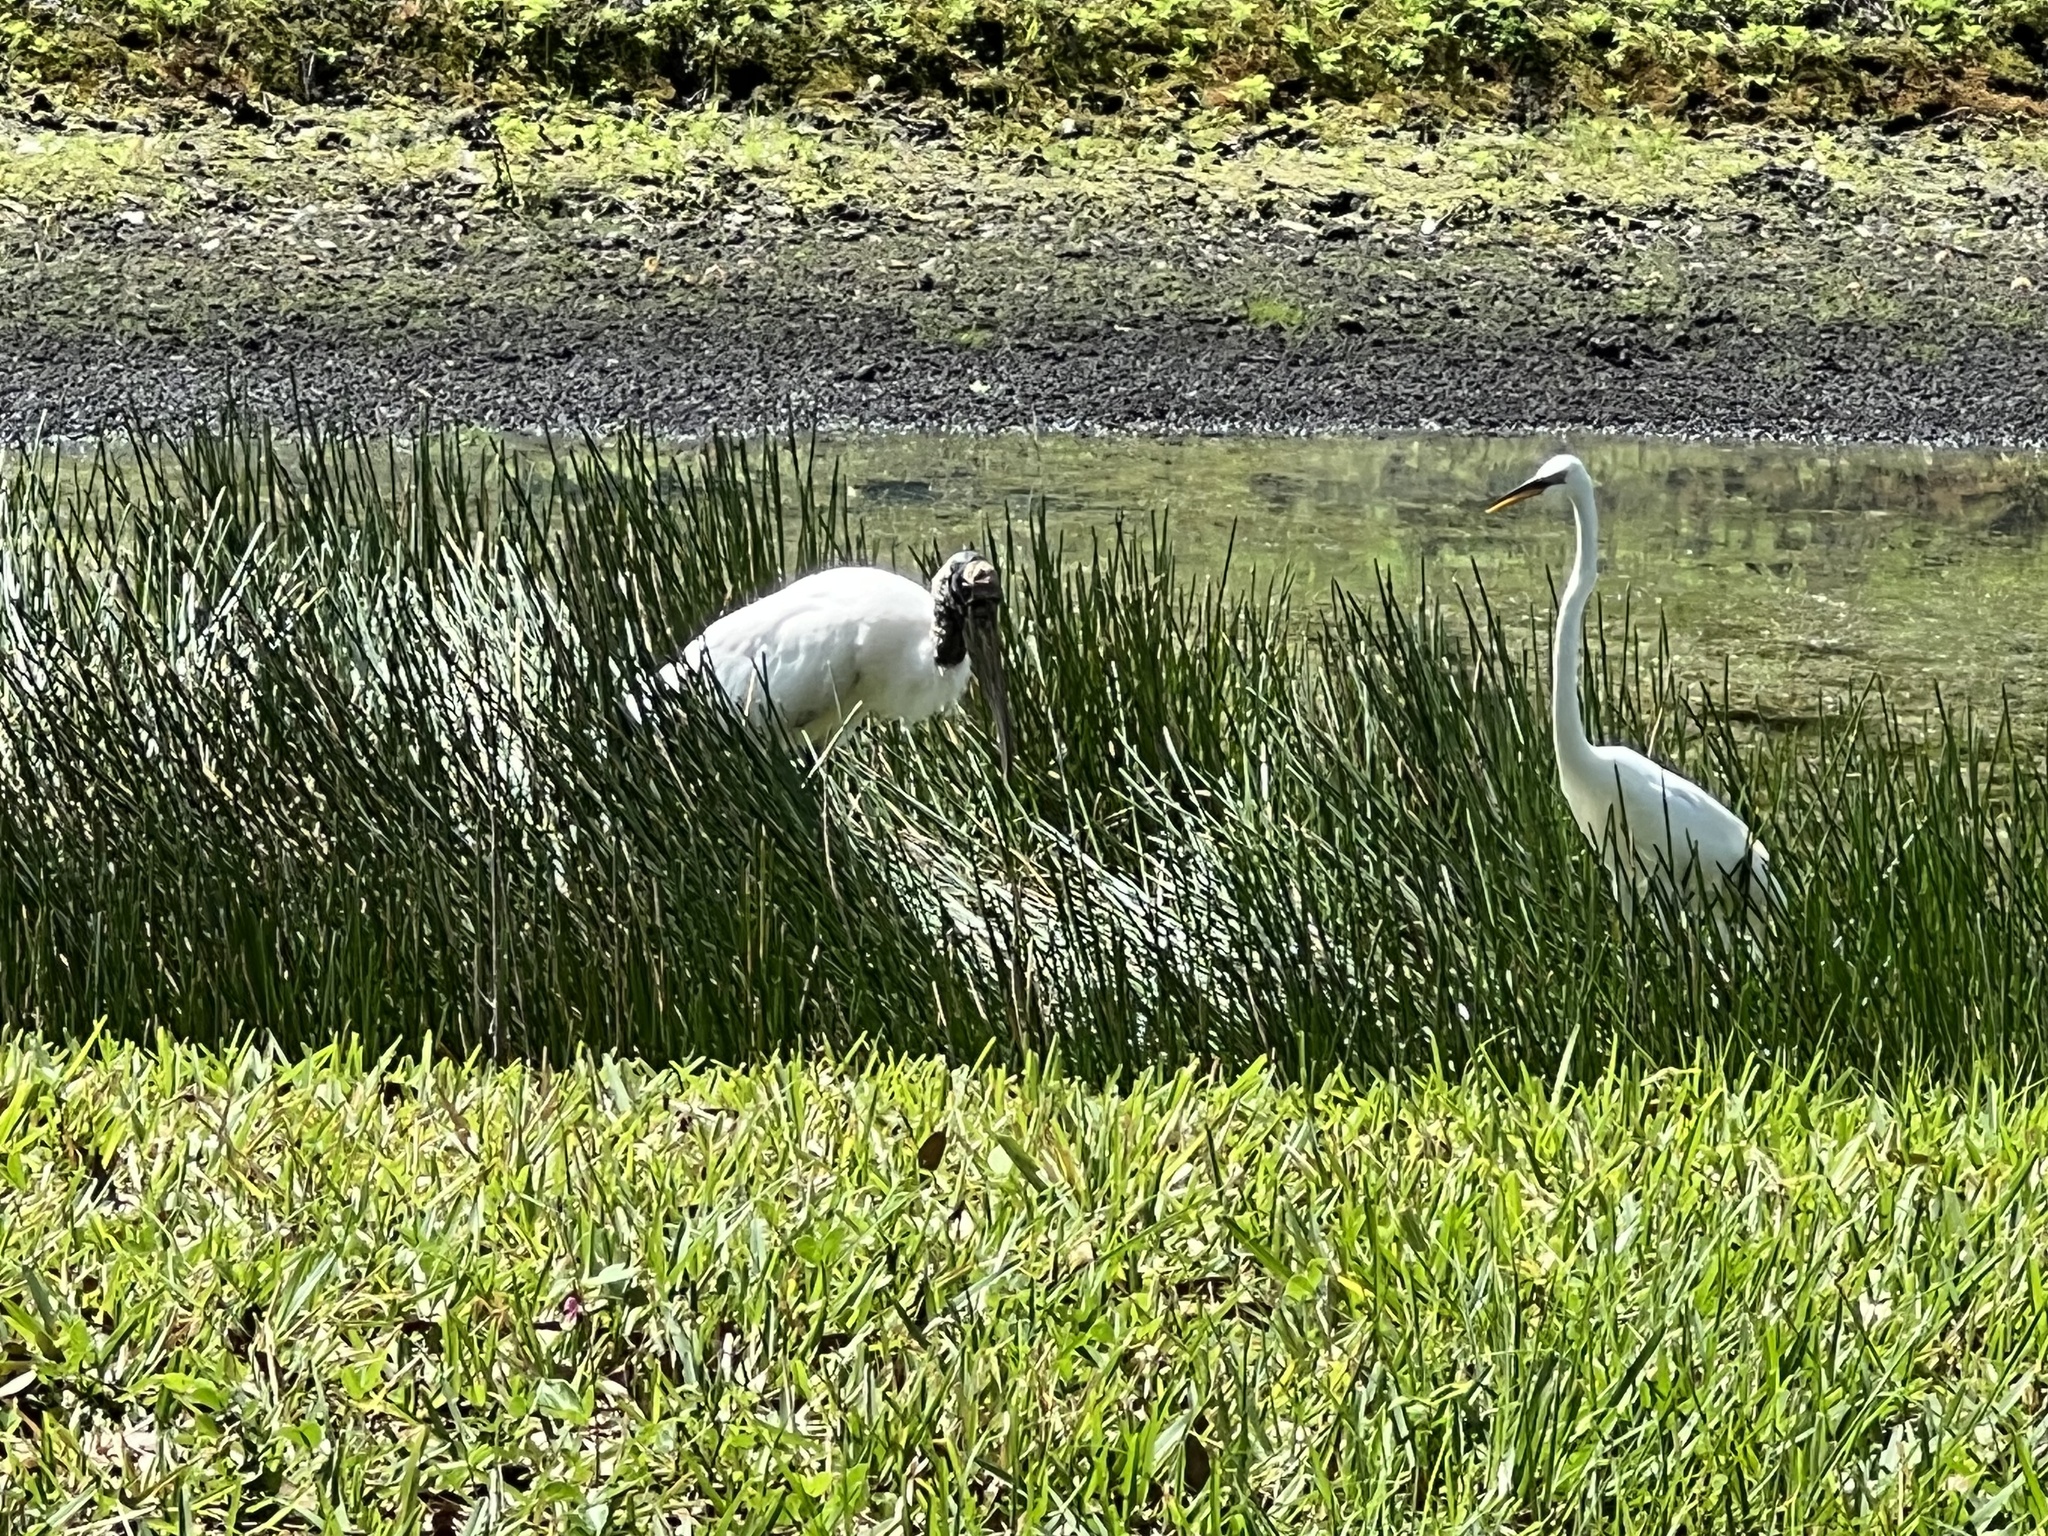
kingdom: Animalia
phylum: Chordata
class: Aves
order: Pelecaniformes
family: Ardeidae
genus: Ardea
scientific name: Ardea alba
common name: Great egret
